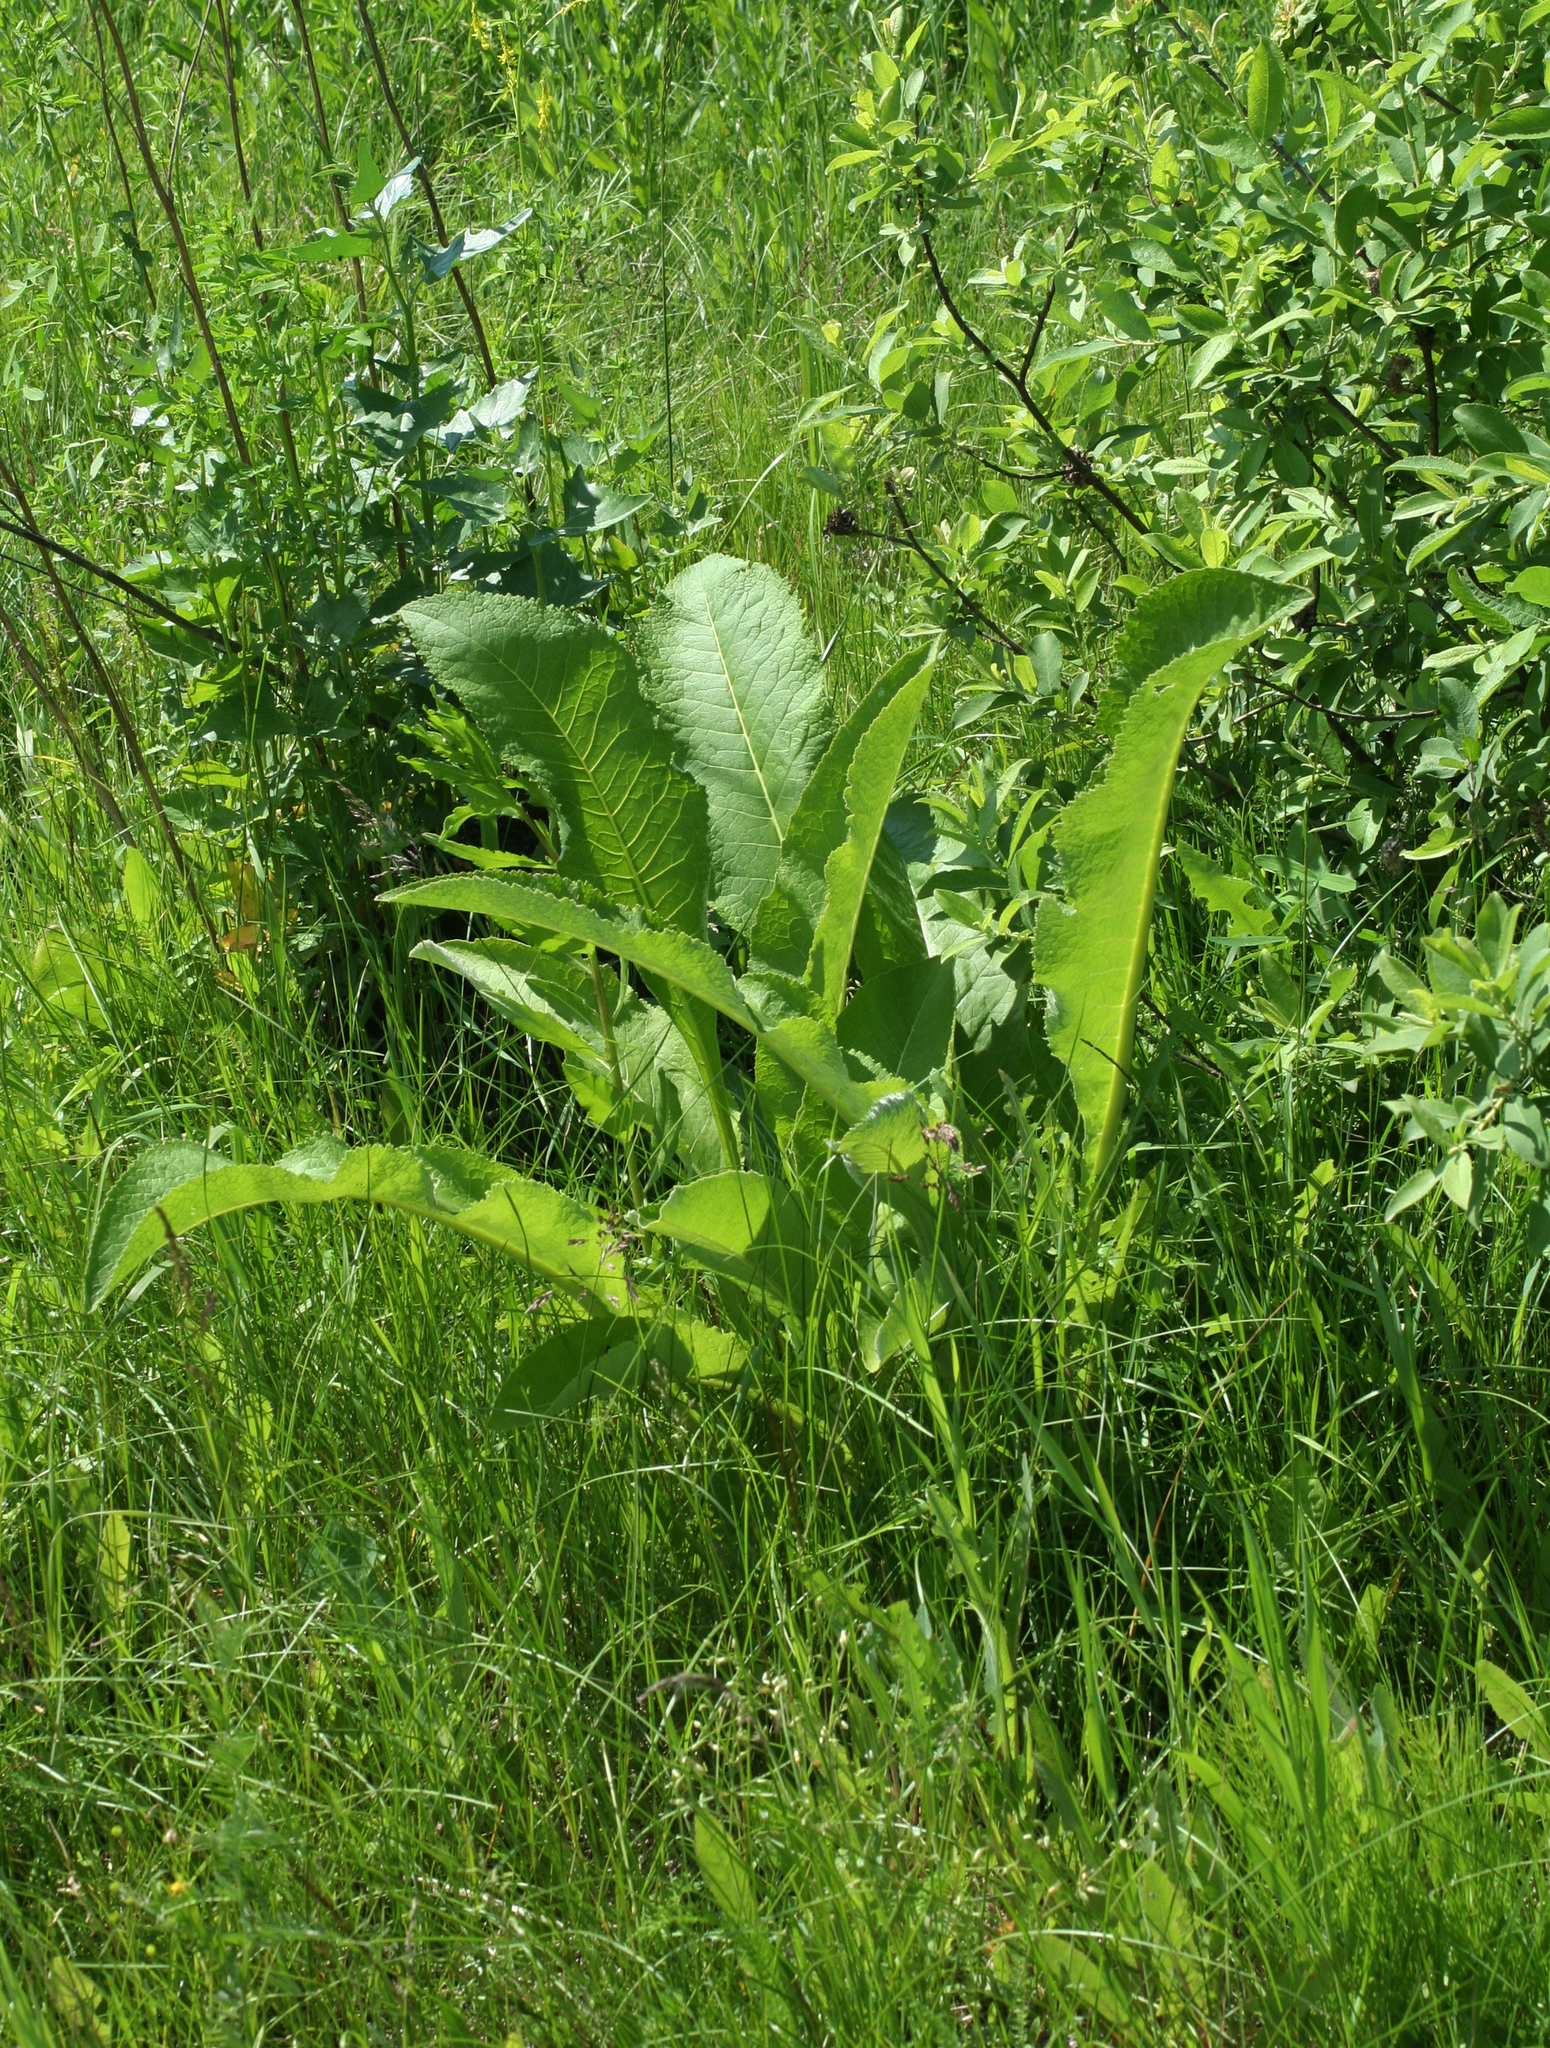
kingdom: Plantae
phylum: Tracheophyta
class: Magnoliopsida
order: Asterales
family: Asteraceae
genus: Inula
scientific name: Inula helenium
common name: Elecampane
